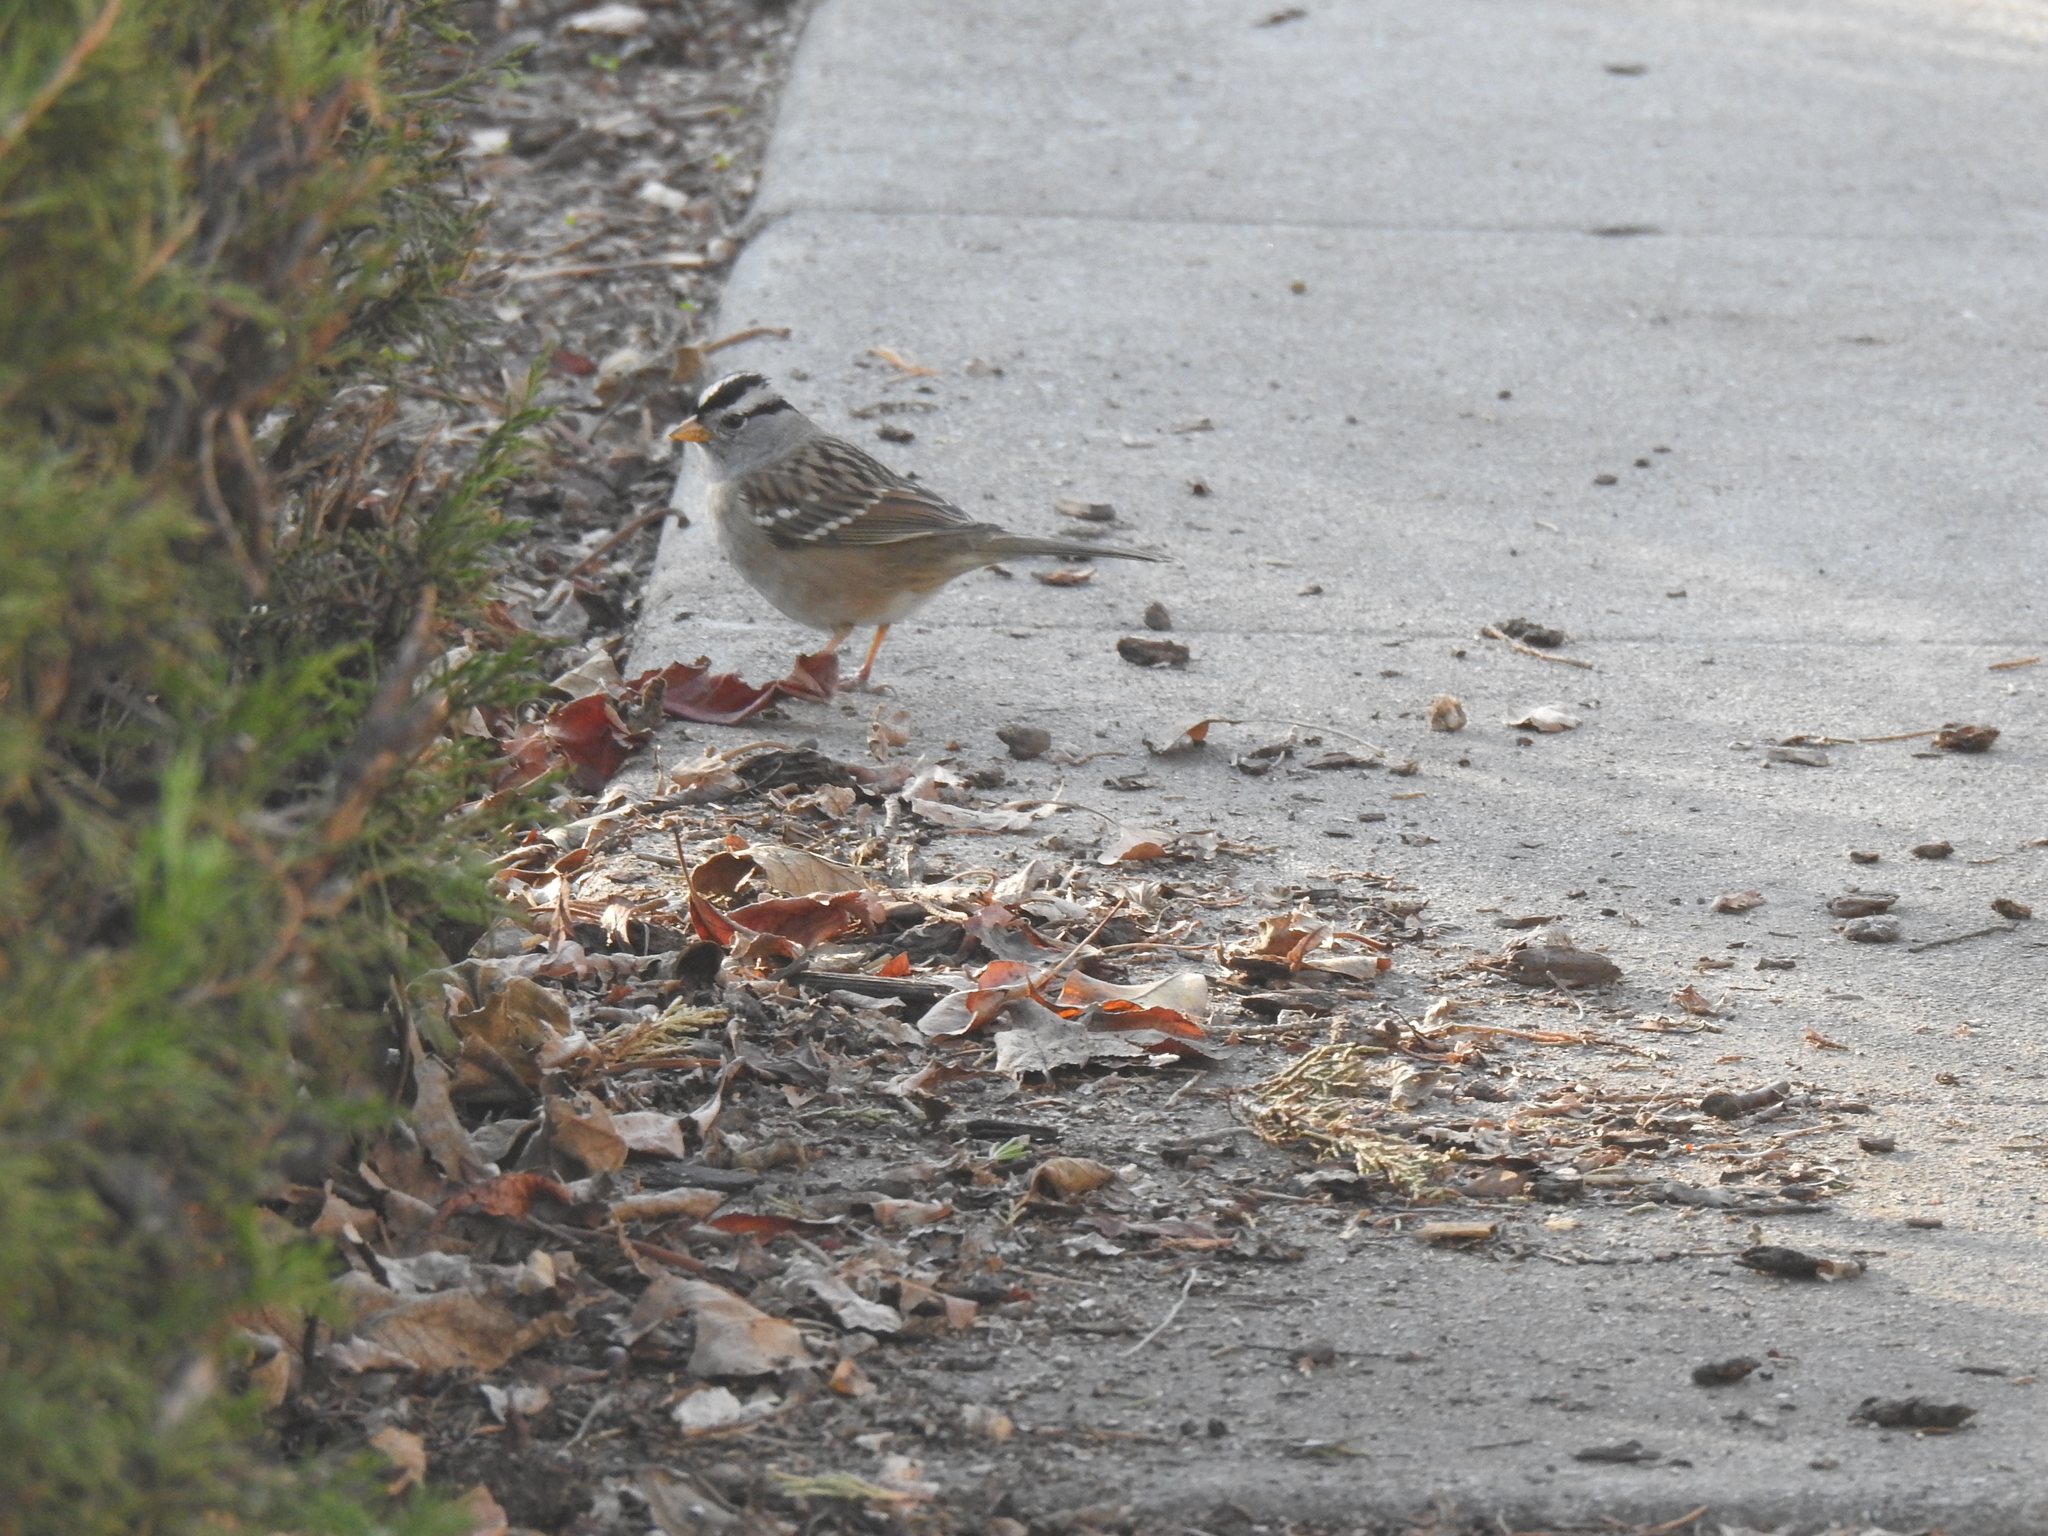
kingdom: Animalia
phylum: Chordata
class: Aves
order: Passeriformes
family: Passerellidae
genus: Zonotrichia
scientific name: Zonotrichia leucophrys
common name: White-crowned sparrow
